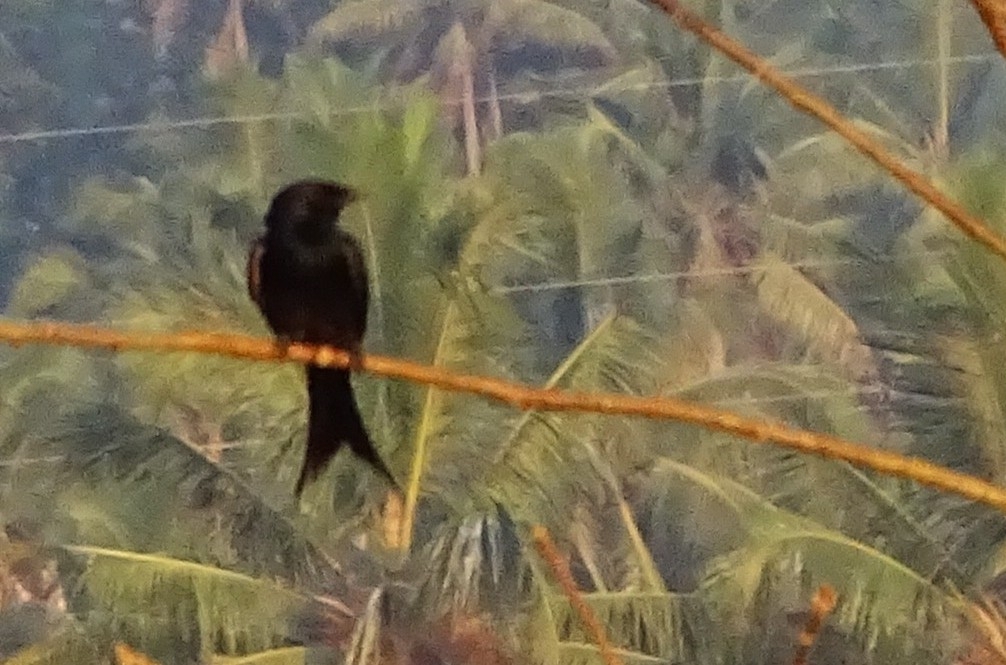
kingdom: Animalia
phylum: Chordata
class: Aves
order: Passeriformes
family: Dicruridae
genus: Dicrurus
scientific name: Dicrurus macrocercus
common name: Black drongo
